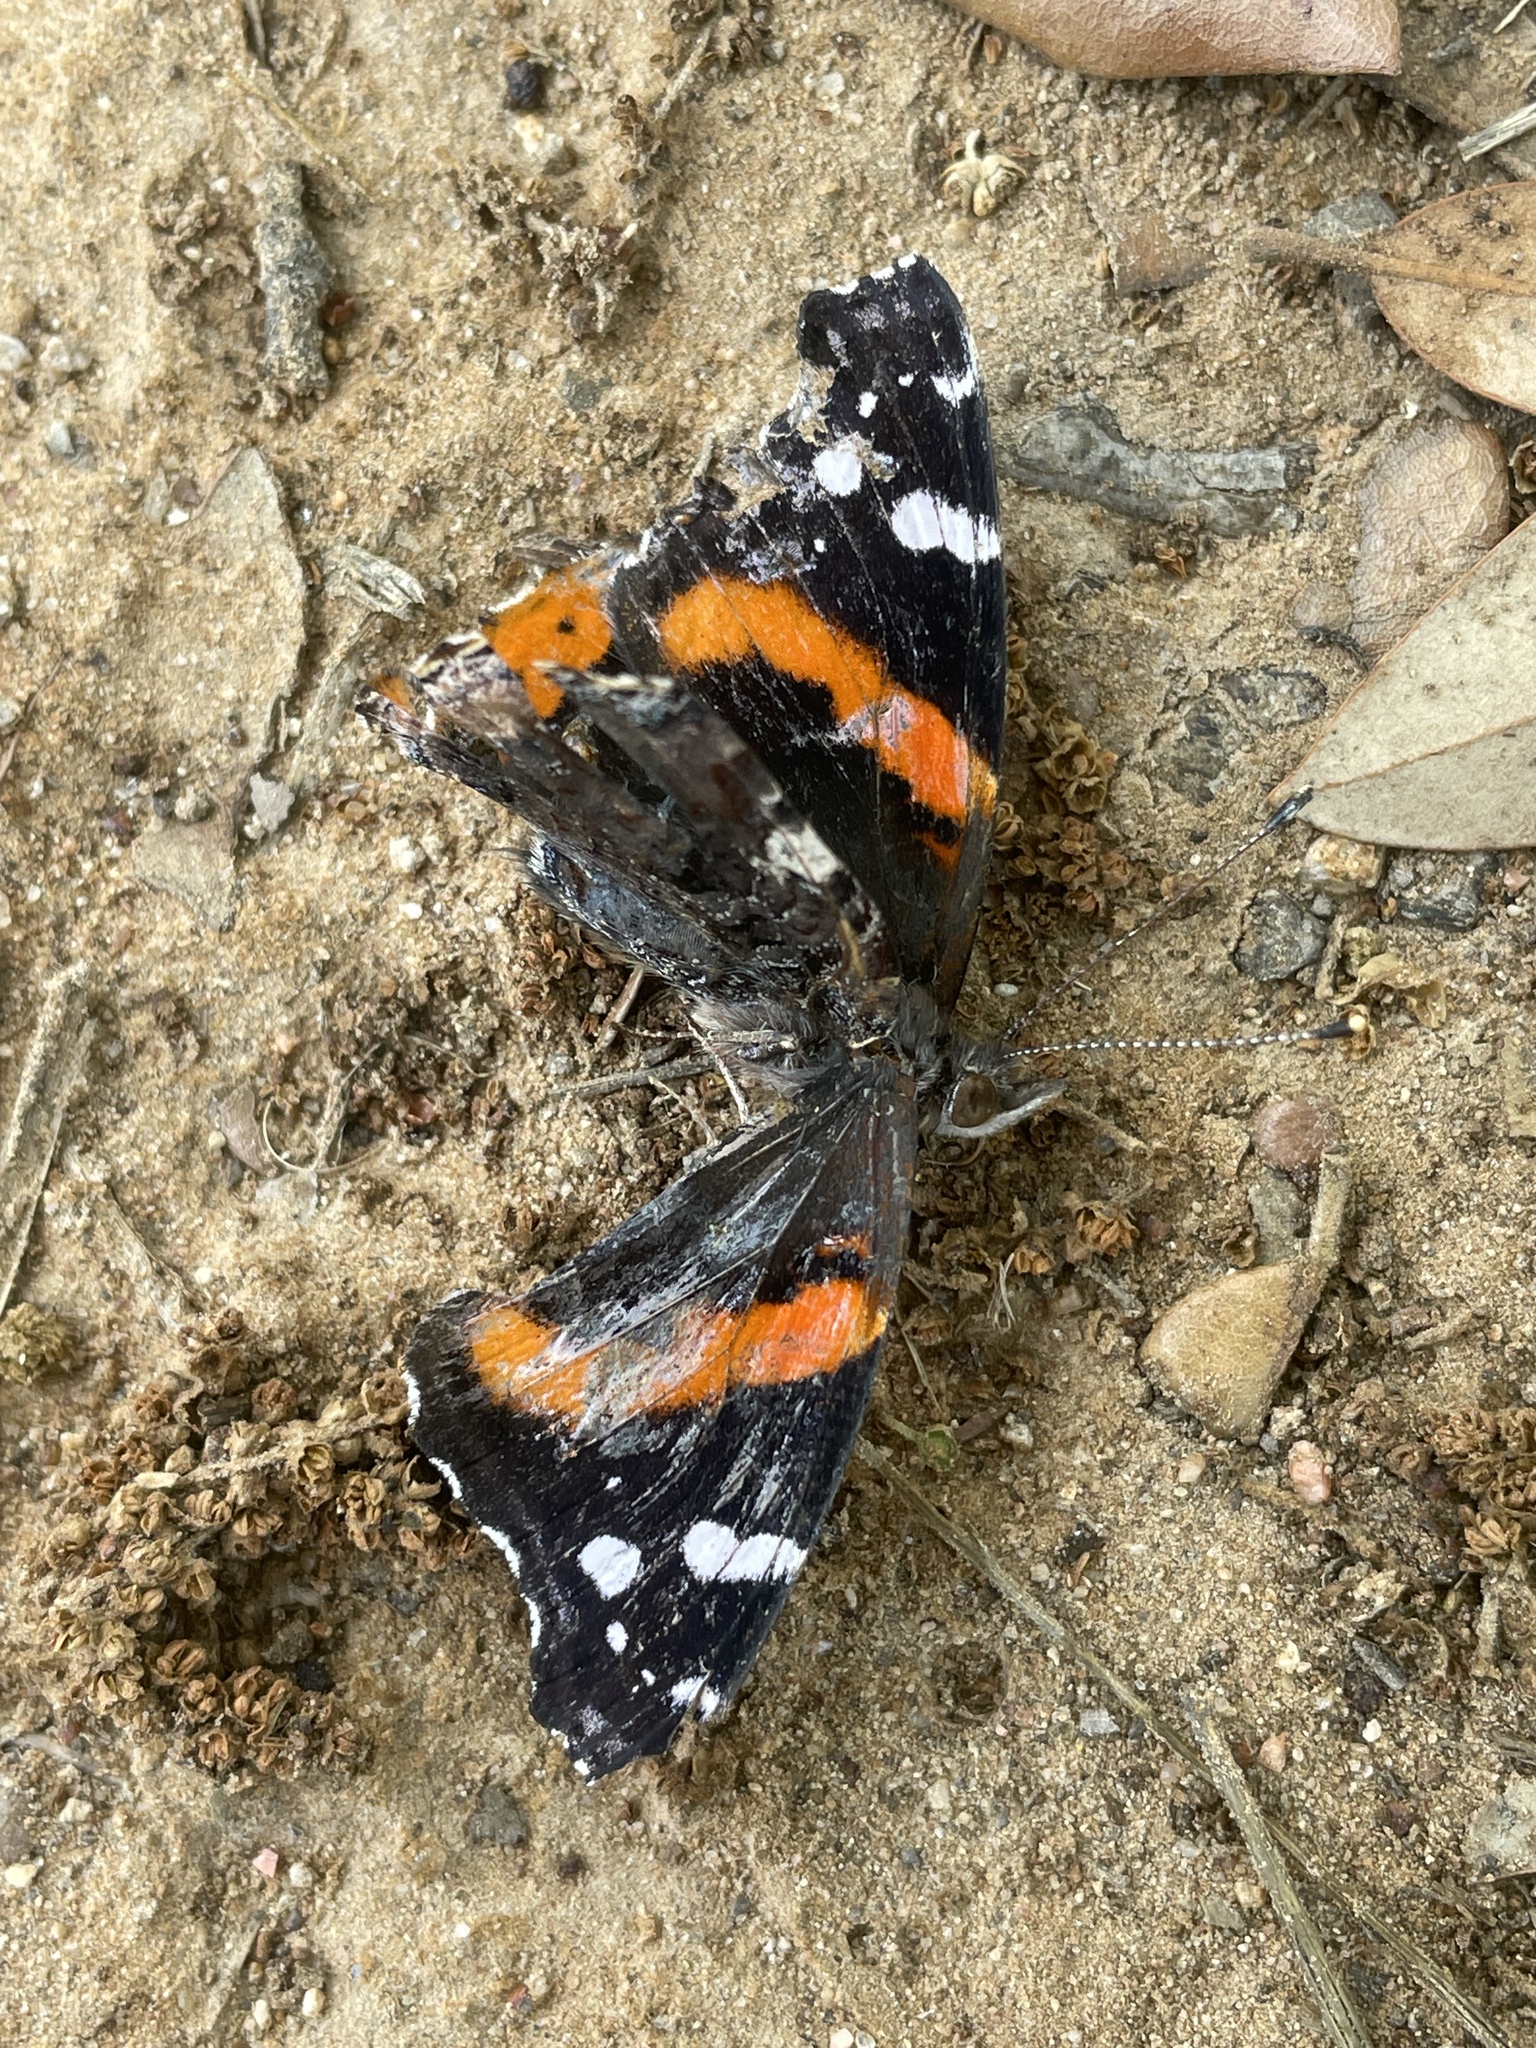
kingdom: Animalia
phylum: Arthropoda
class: Insecta
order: Lepidoptera
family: Nymphalidae
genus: Vanessa
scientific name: Vanessa atalanta
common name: Red admiral
